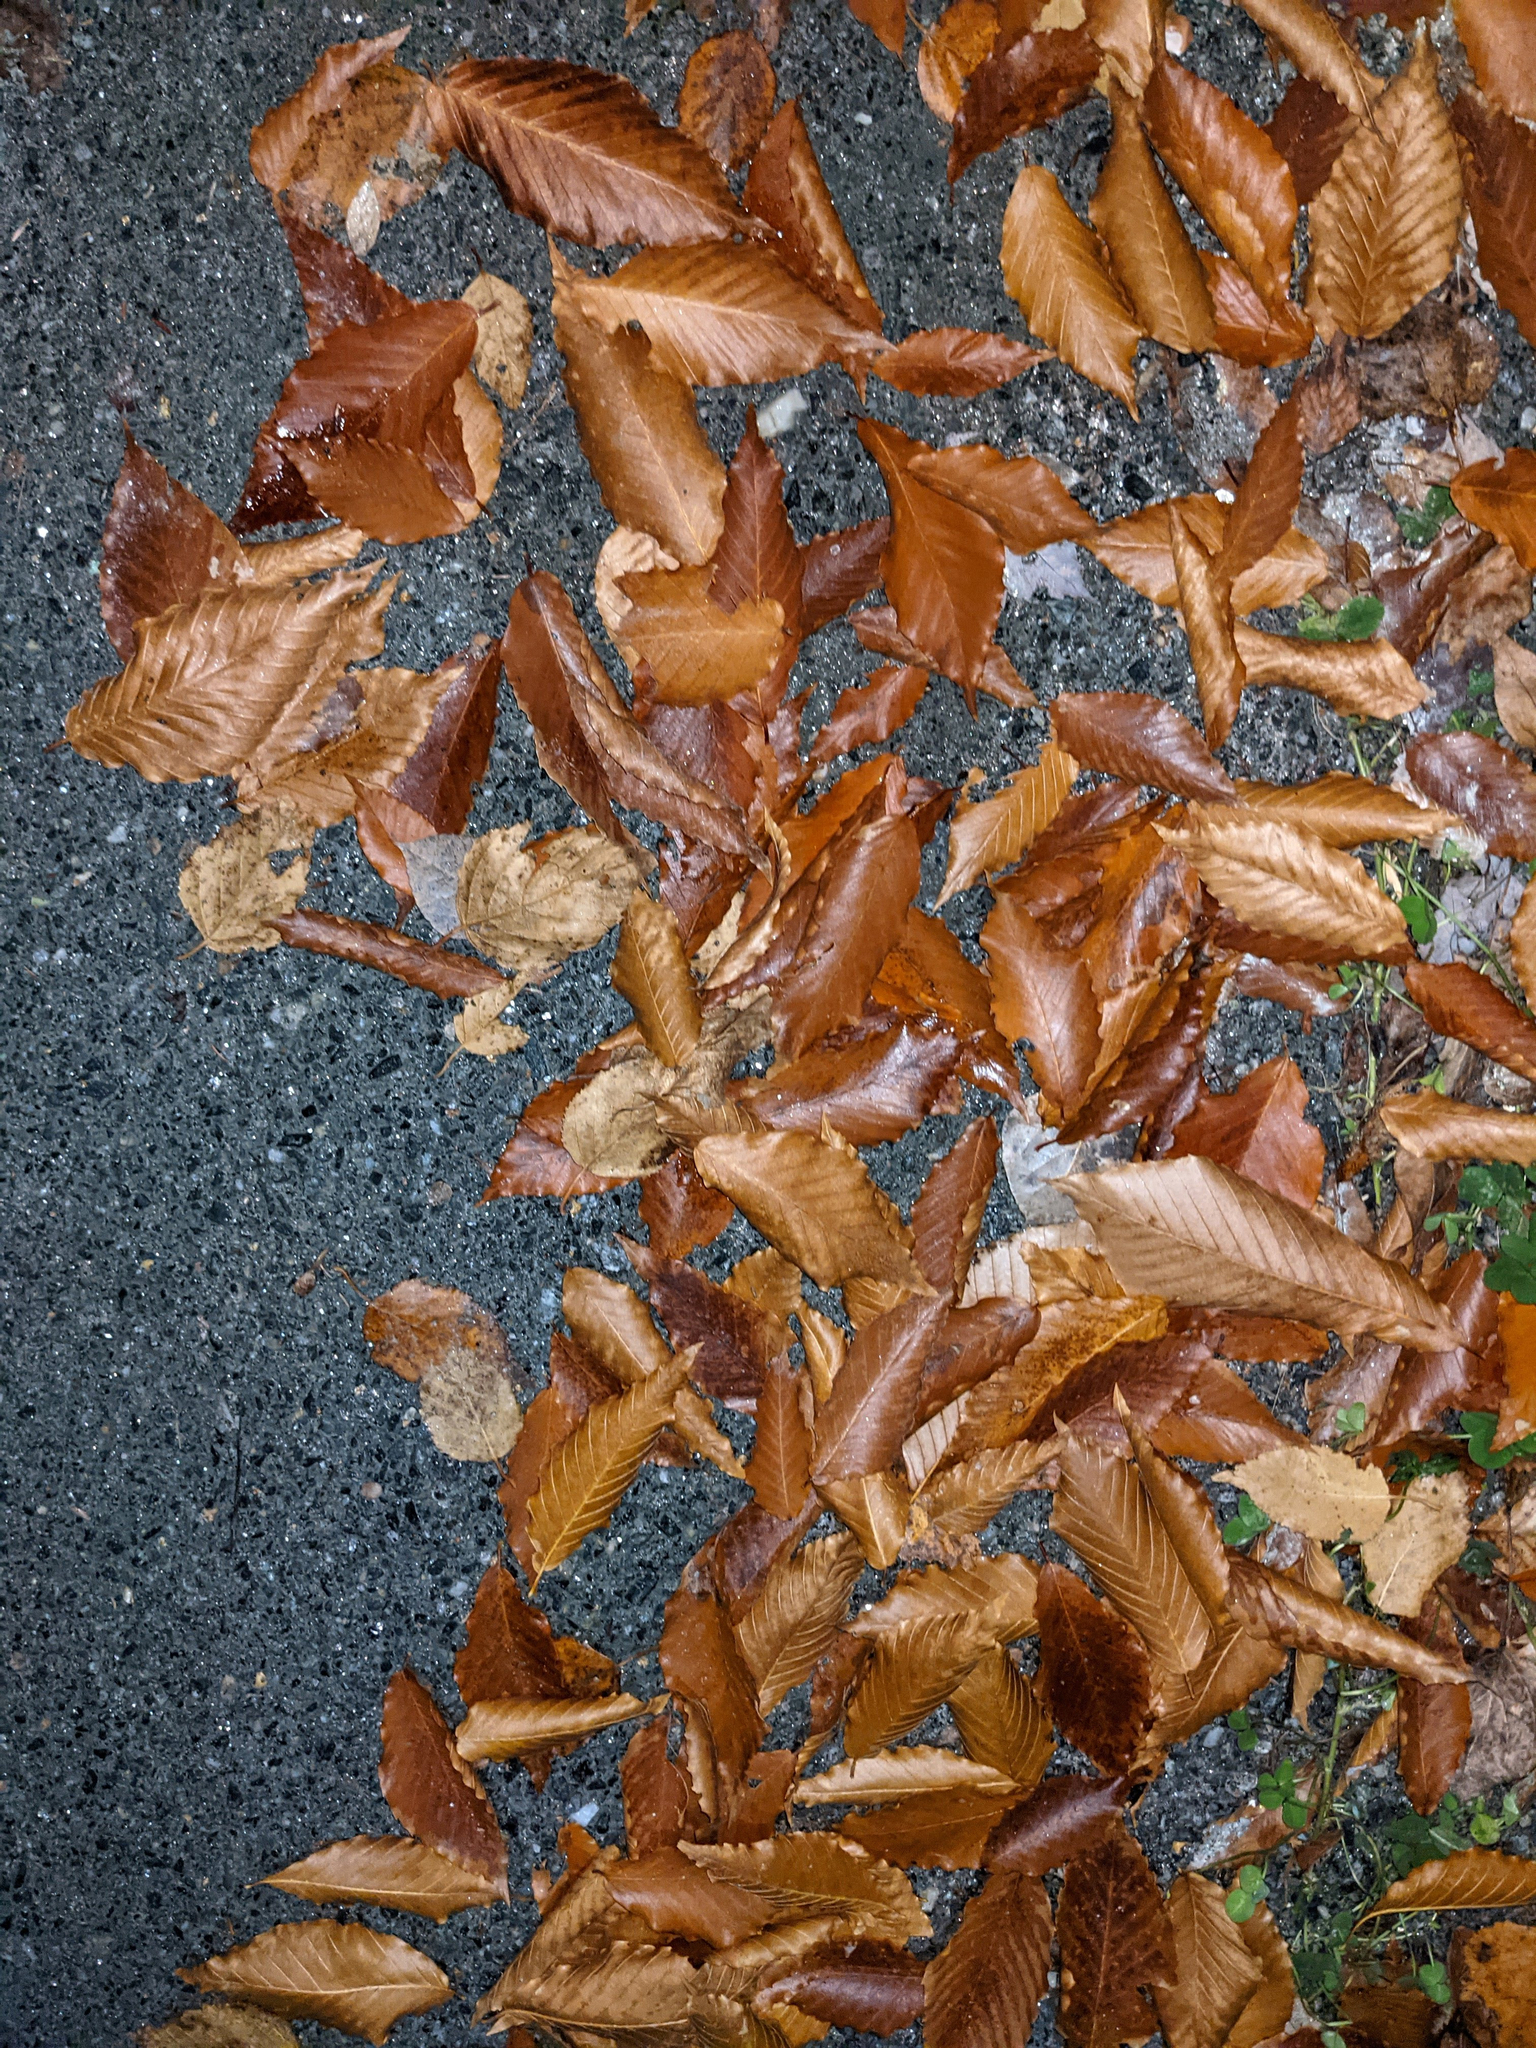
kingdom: Plantae
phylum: Tracheophyta
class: Magnoliopsida
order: Fagales
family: Fagaceae
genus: Fagus
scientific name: Fagus grandifolia
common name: American beech
